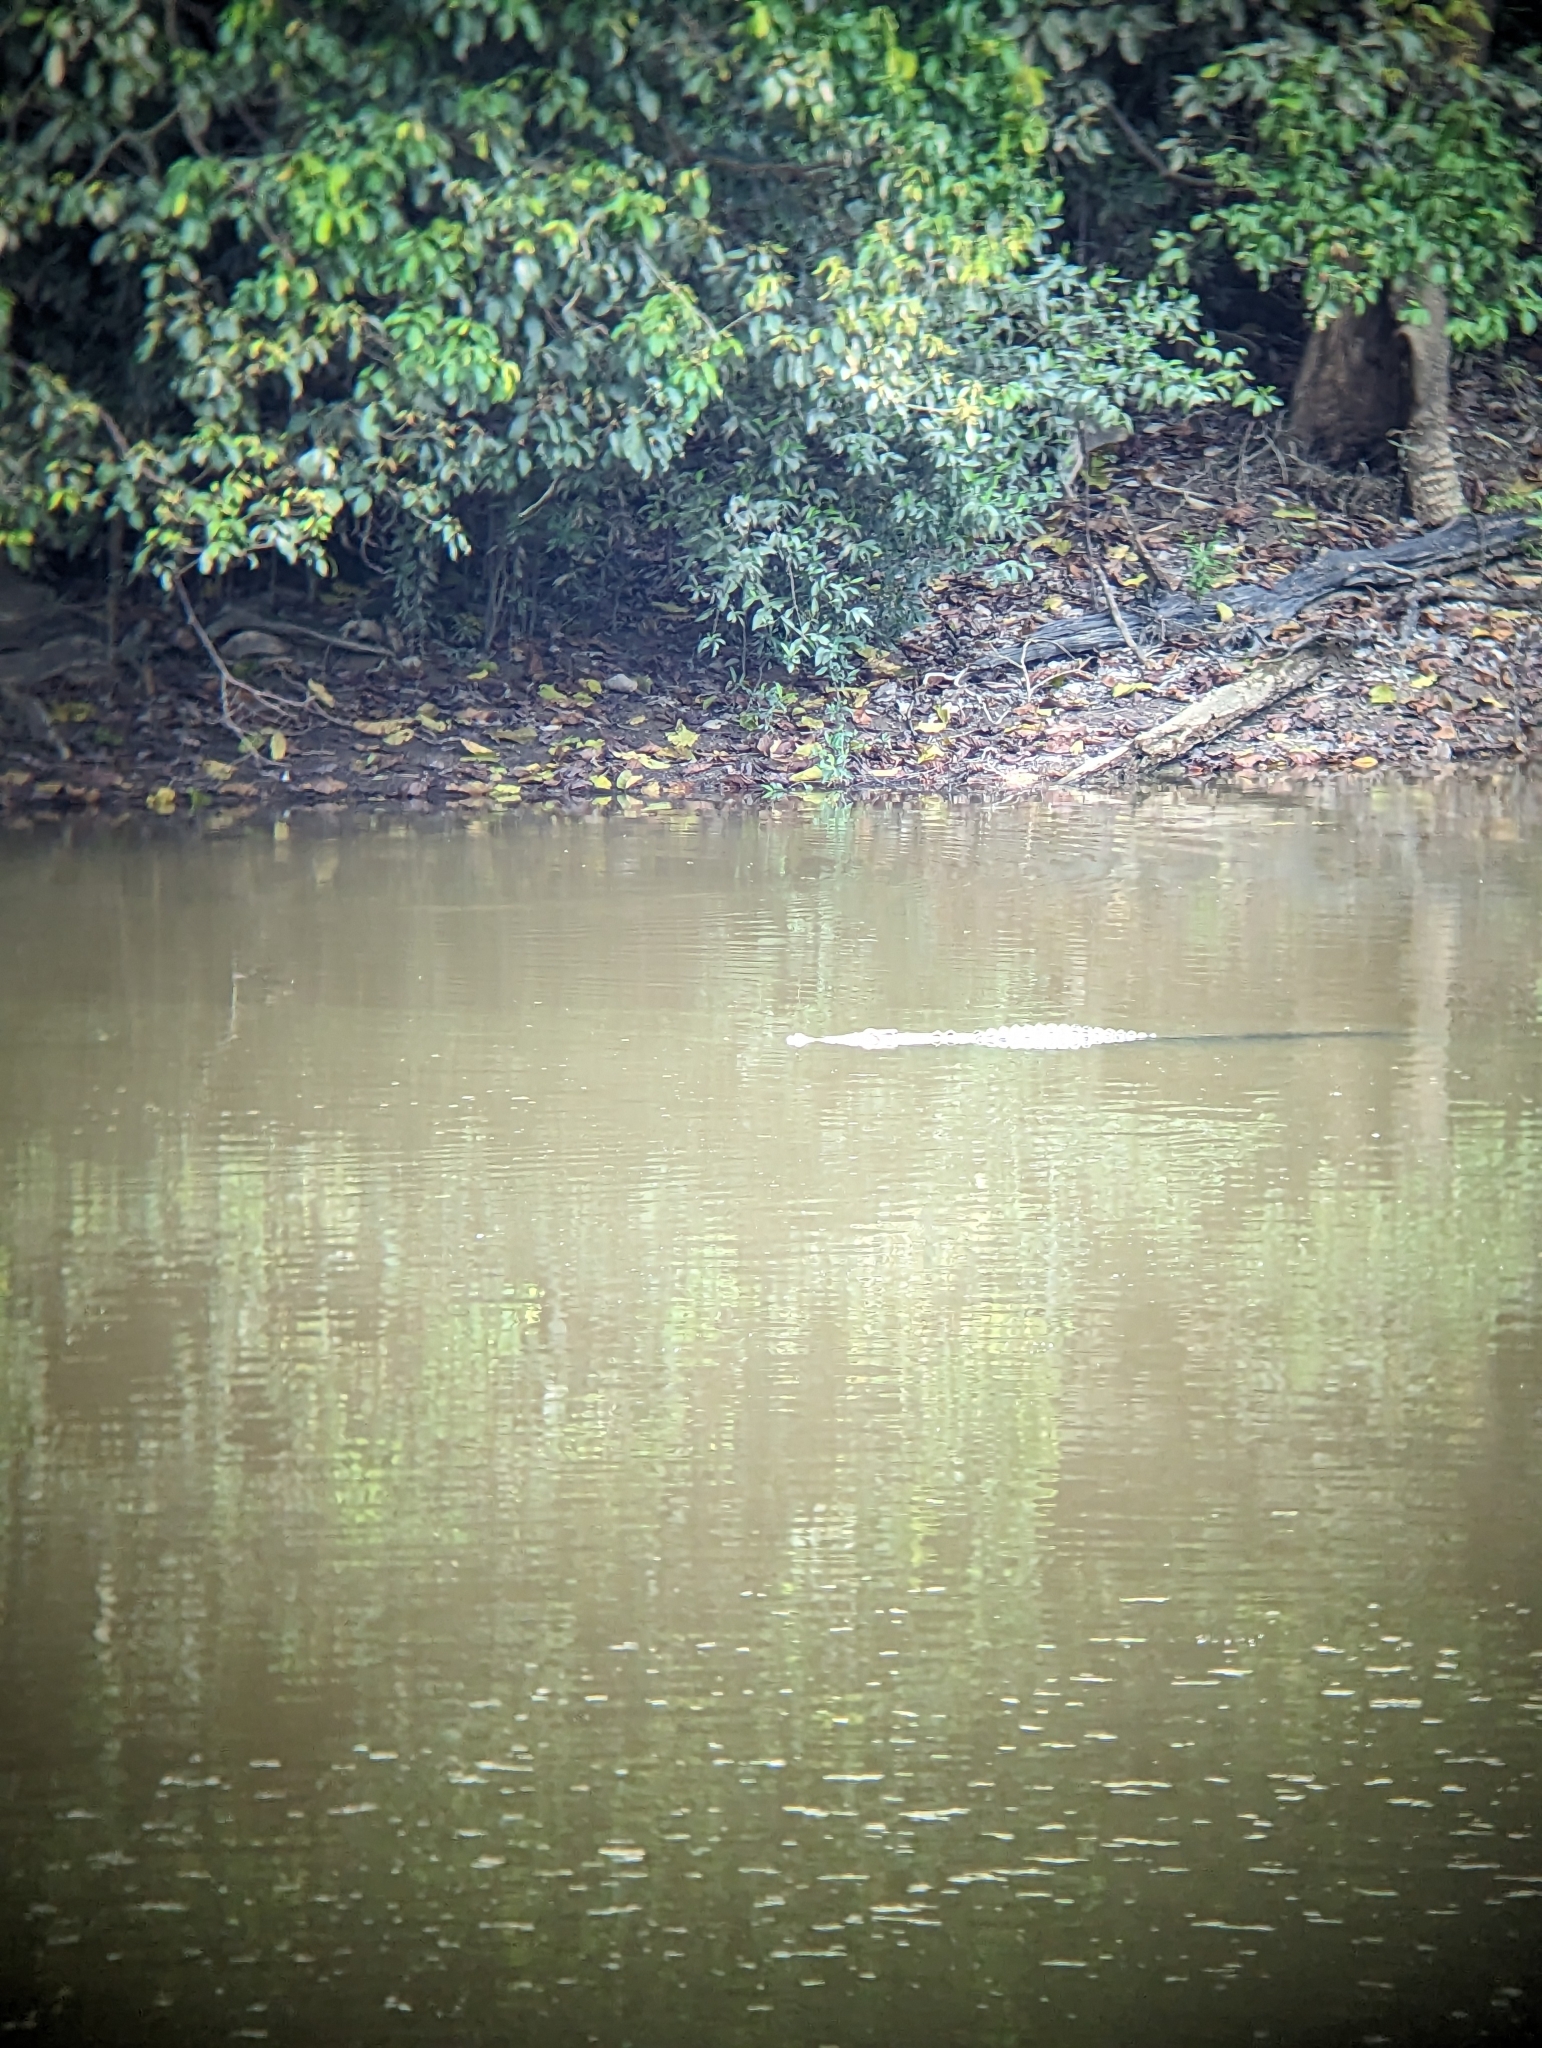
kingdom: Animalia
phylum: Chordata
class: Crocodylia
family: Crocodylidae
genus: Crocodylus
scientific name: Crocodylus porosus
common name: Saltwater crocodile
